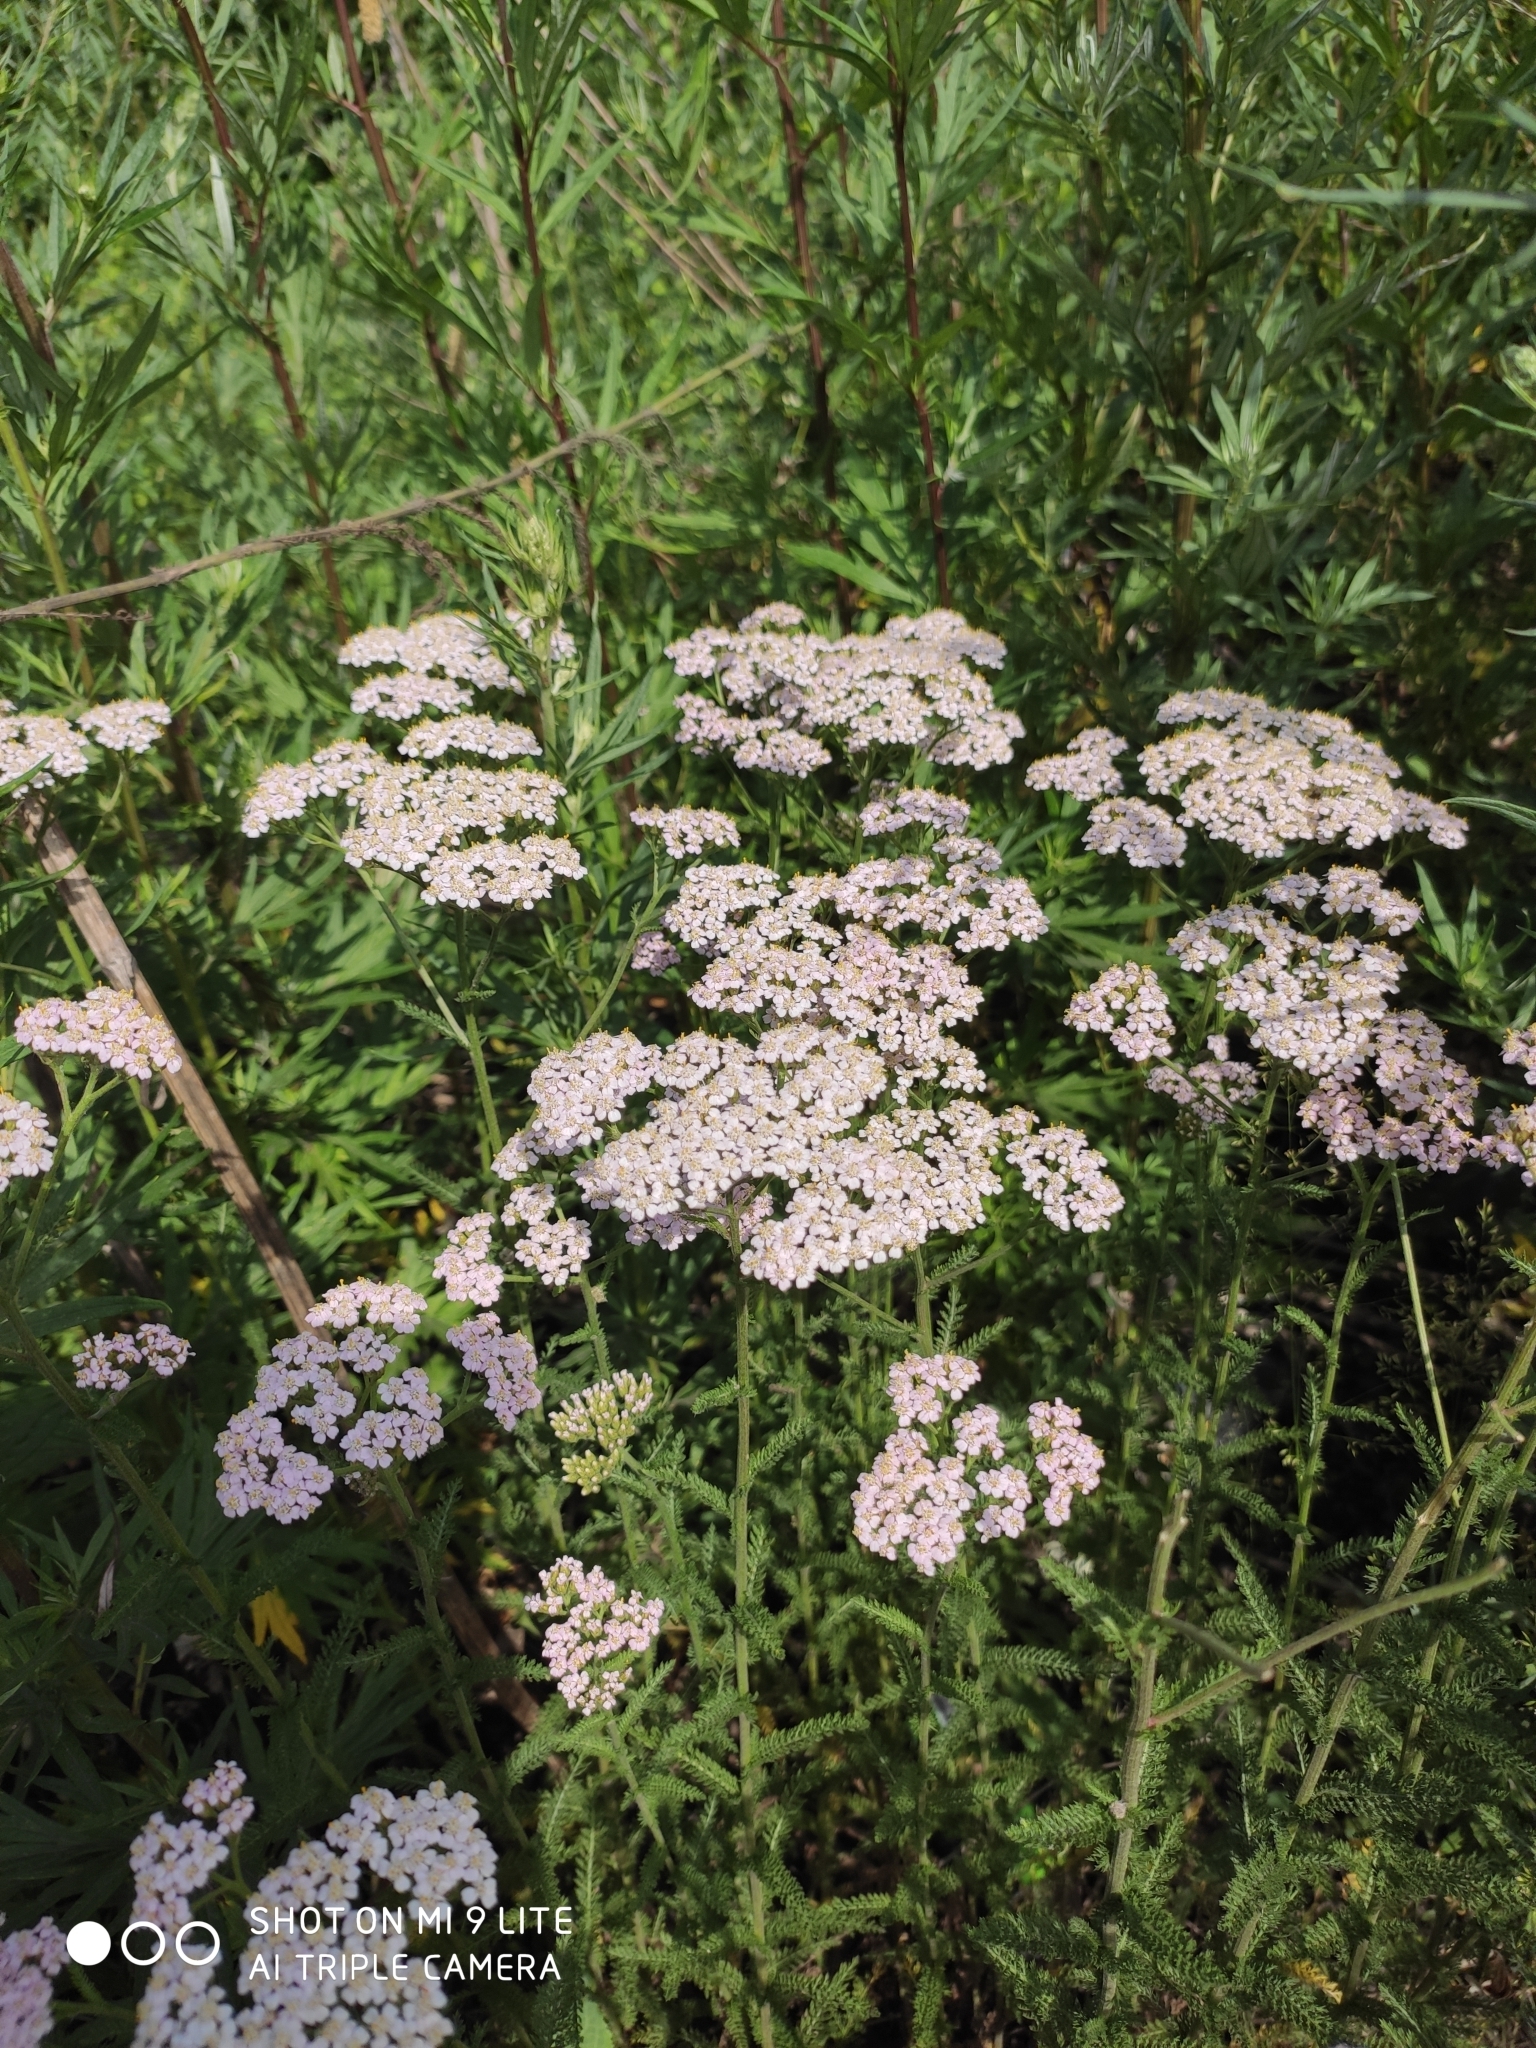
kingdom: Plantae
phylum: Tracheophyta
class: Magnoliopsida
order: Asterales
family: Asteraceae
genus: Achillea
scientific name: Achillea millefolium
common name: Yarrow
